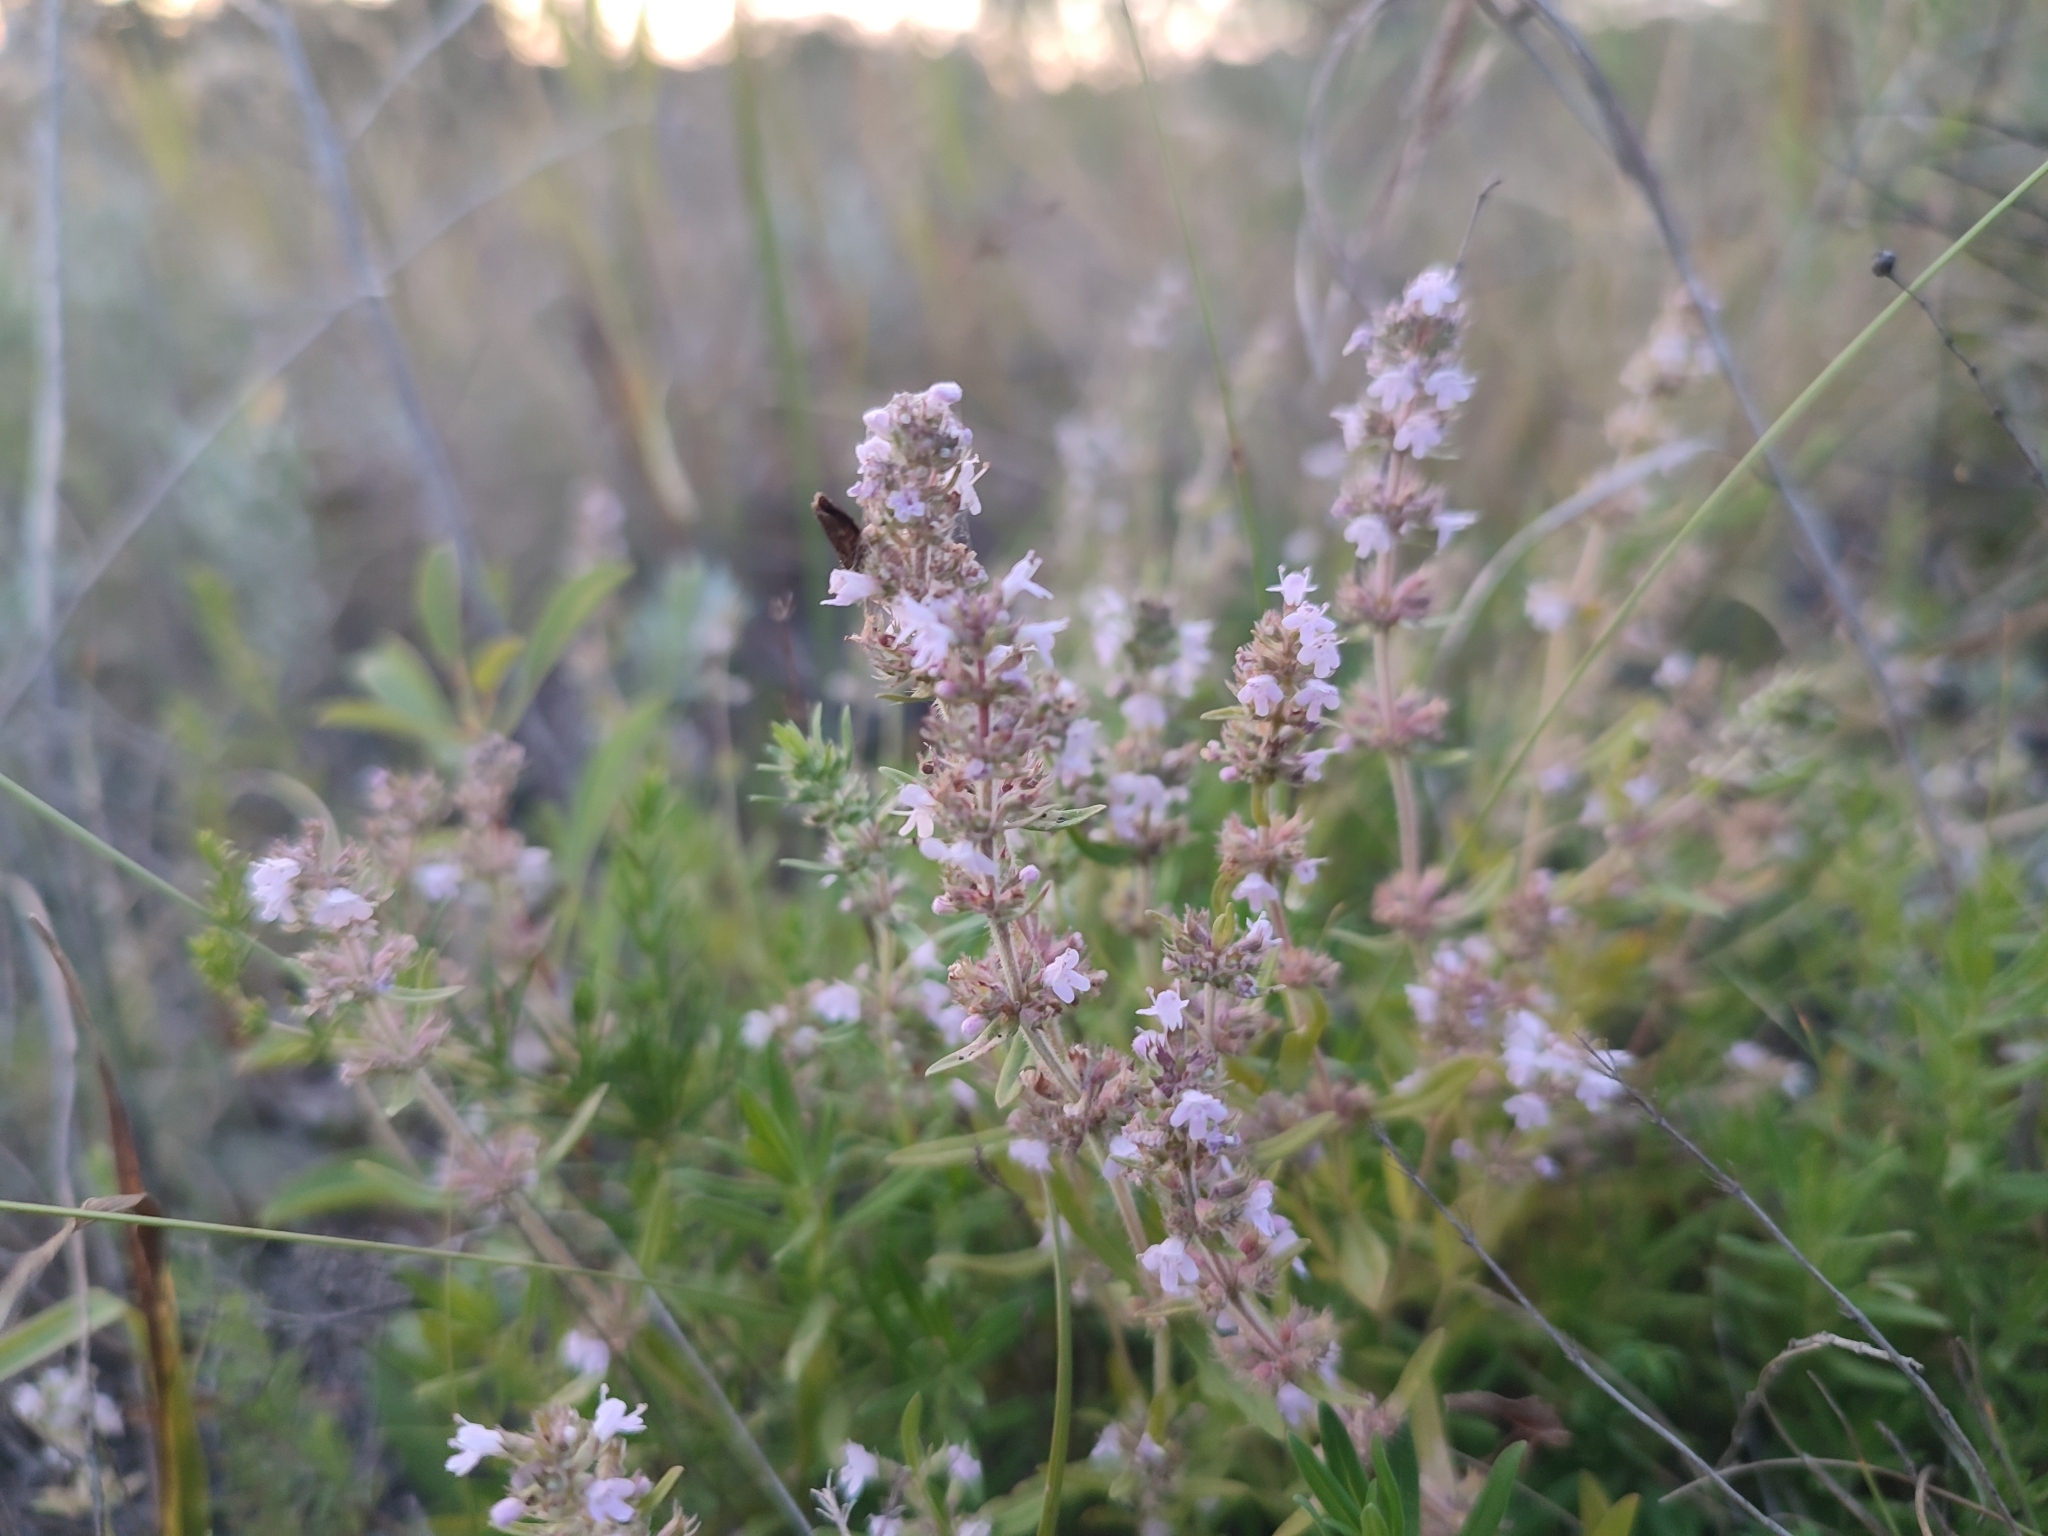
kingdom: Plantae
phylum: Tracheophyta
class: Magnoliopsida
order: Lamiales
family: Lamiaceae
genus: Thymus
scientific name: Thymus pannonicus
